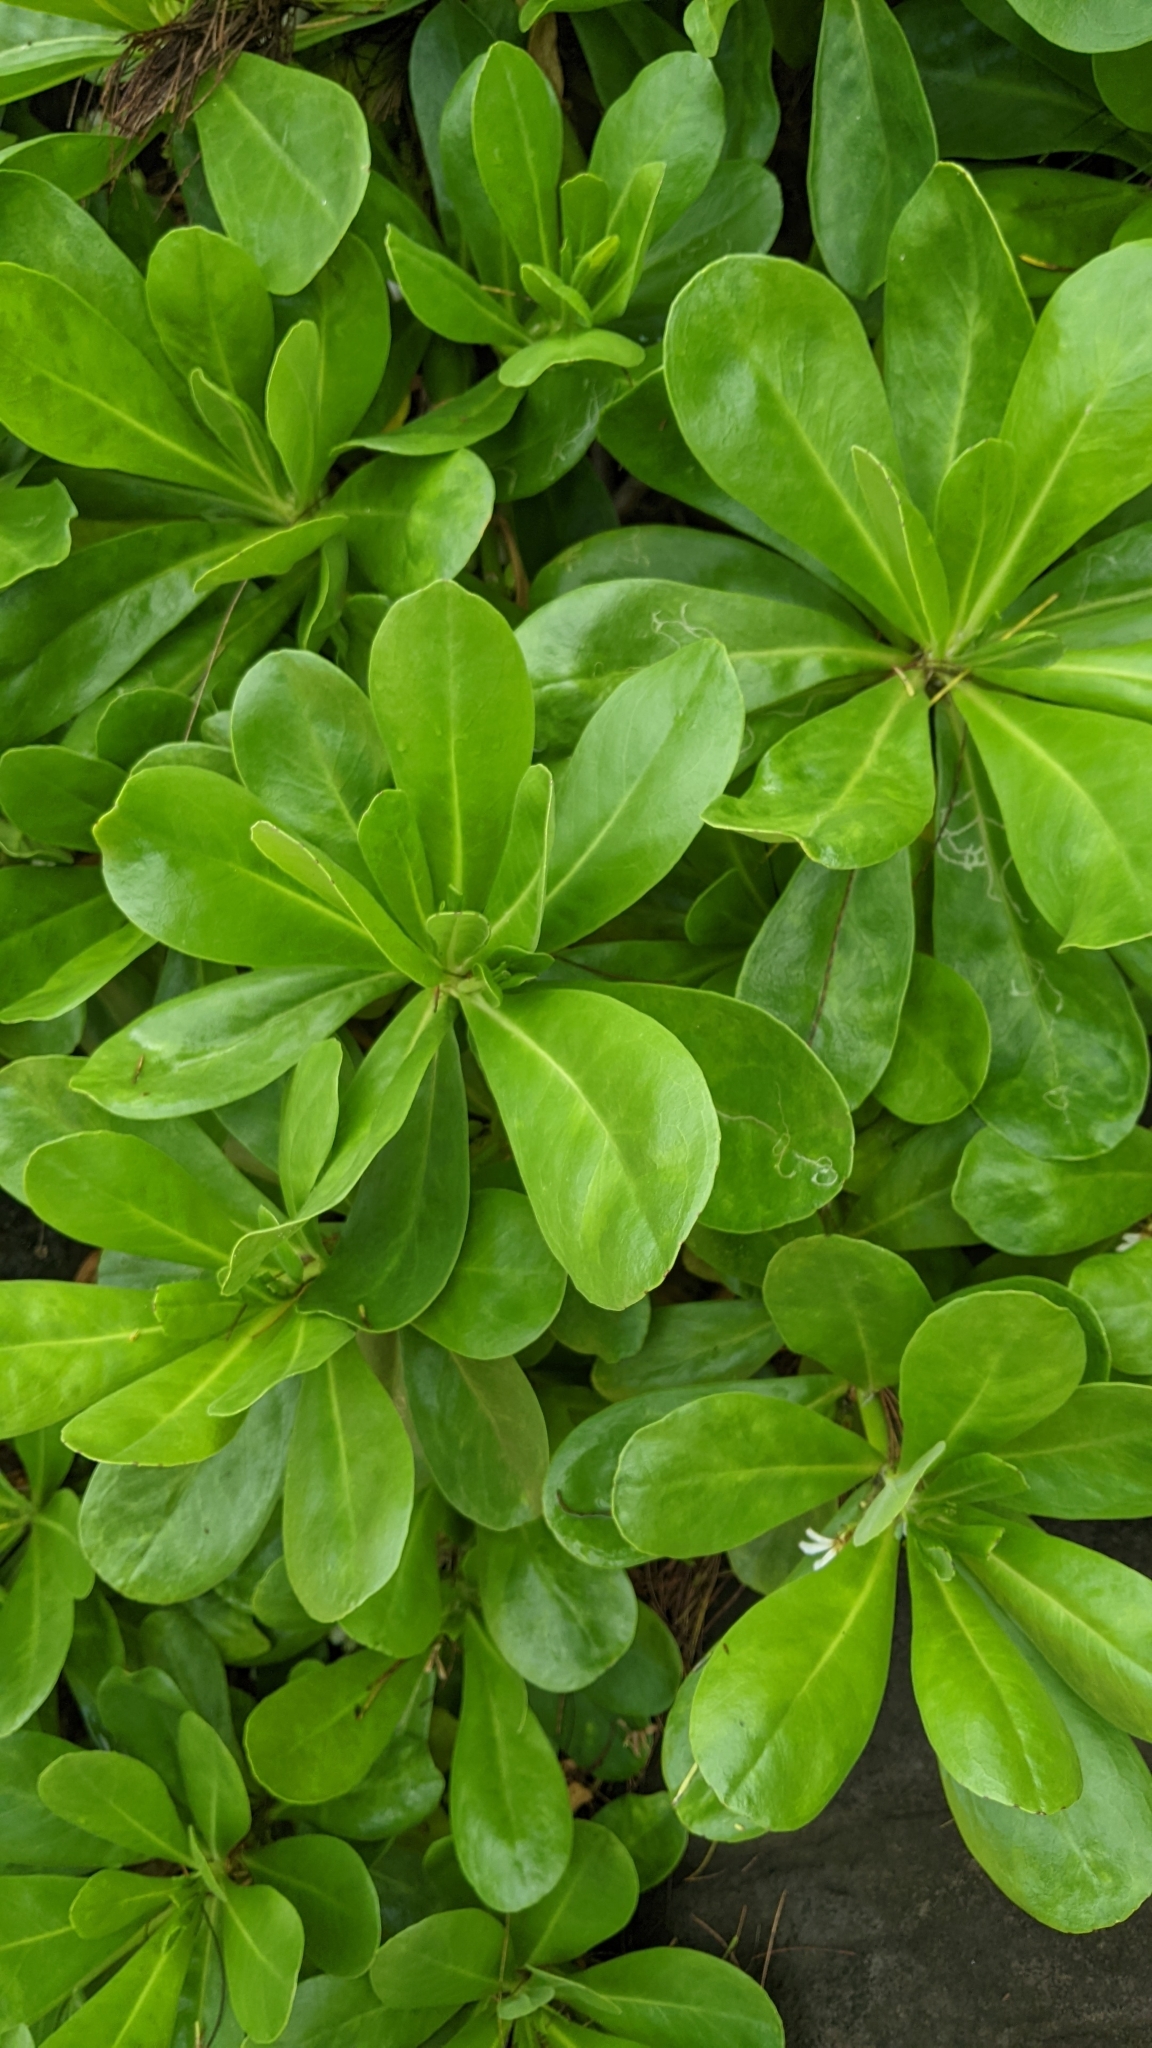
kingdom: Plantae
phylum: Tracheophyta
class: Magnoliopsida
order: Asterales
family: Goodeniaceae
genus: Scaevola
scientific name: Scaevola taccada
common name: Sea lettucetree
